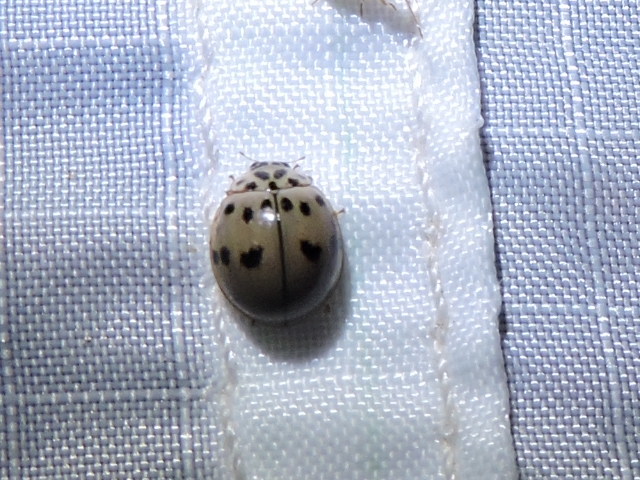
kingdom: Animalia
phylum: Arthropoda
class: Insecta
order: Coleoptera
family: Coccinellidae
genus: Olla
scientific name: Olla v-nigrum
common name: Ashy gray lady beetle
